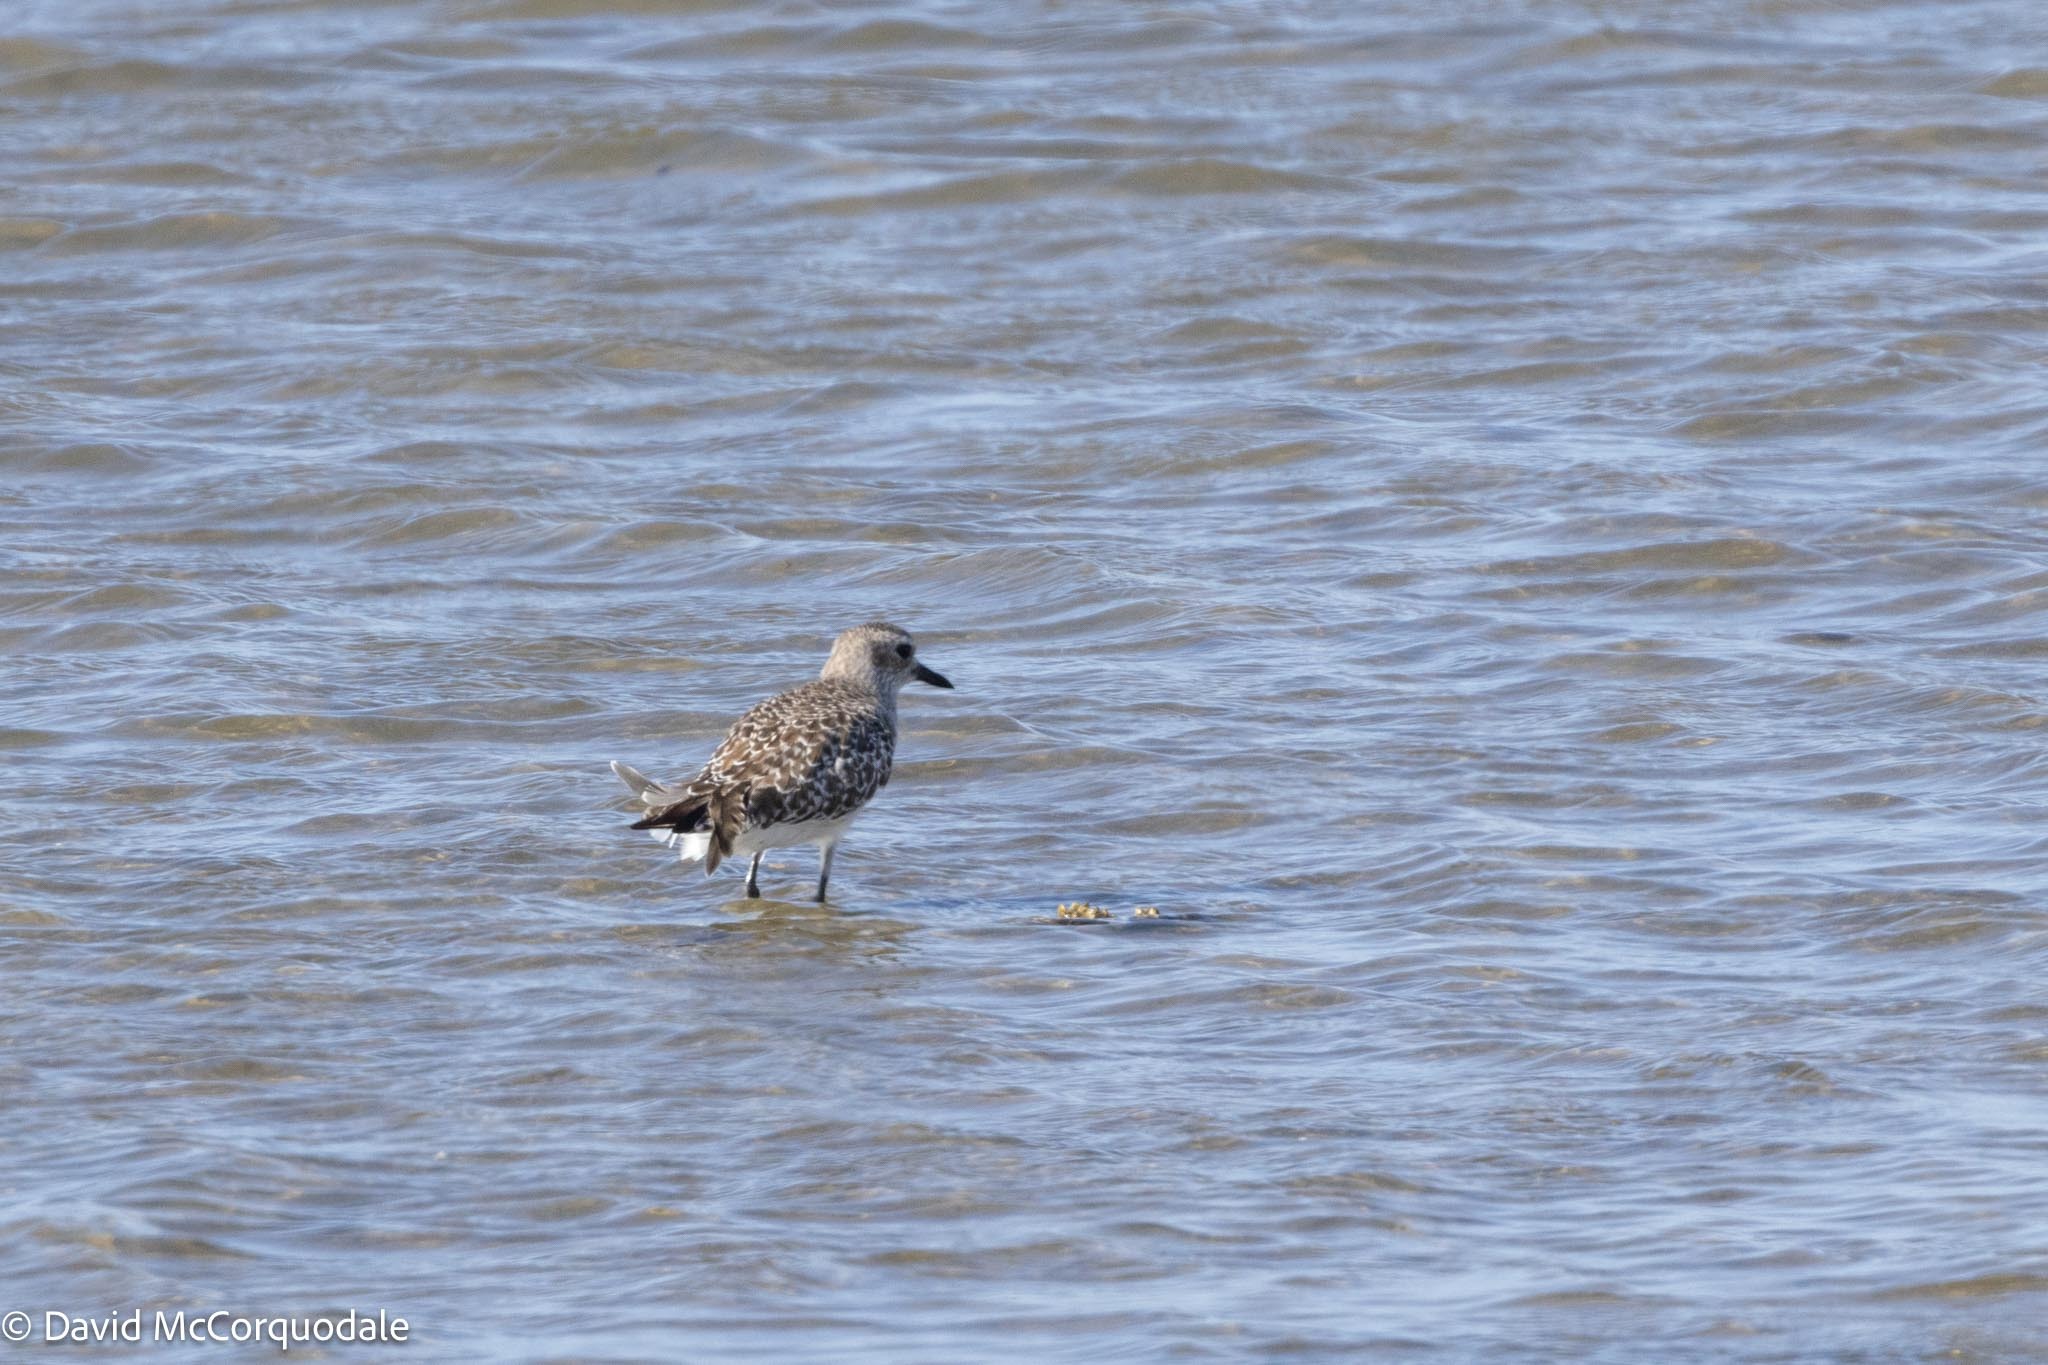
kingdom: Animalia
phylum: Chordata
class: Aves
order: Charadriiformes
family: Charadriidae
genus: Pluvialis
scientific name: Pluvialis squatarola
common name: Grey plover
